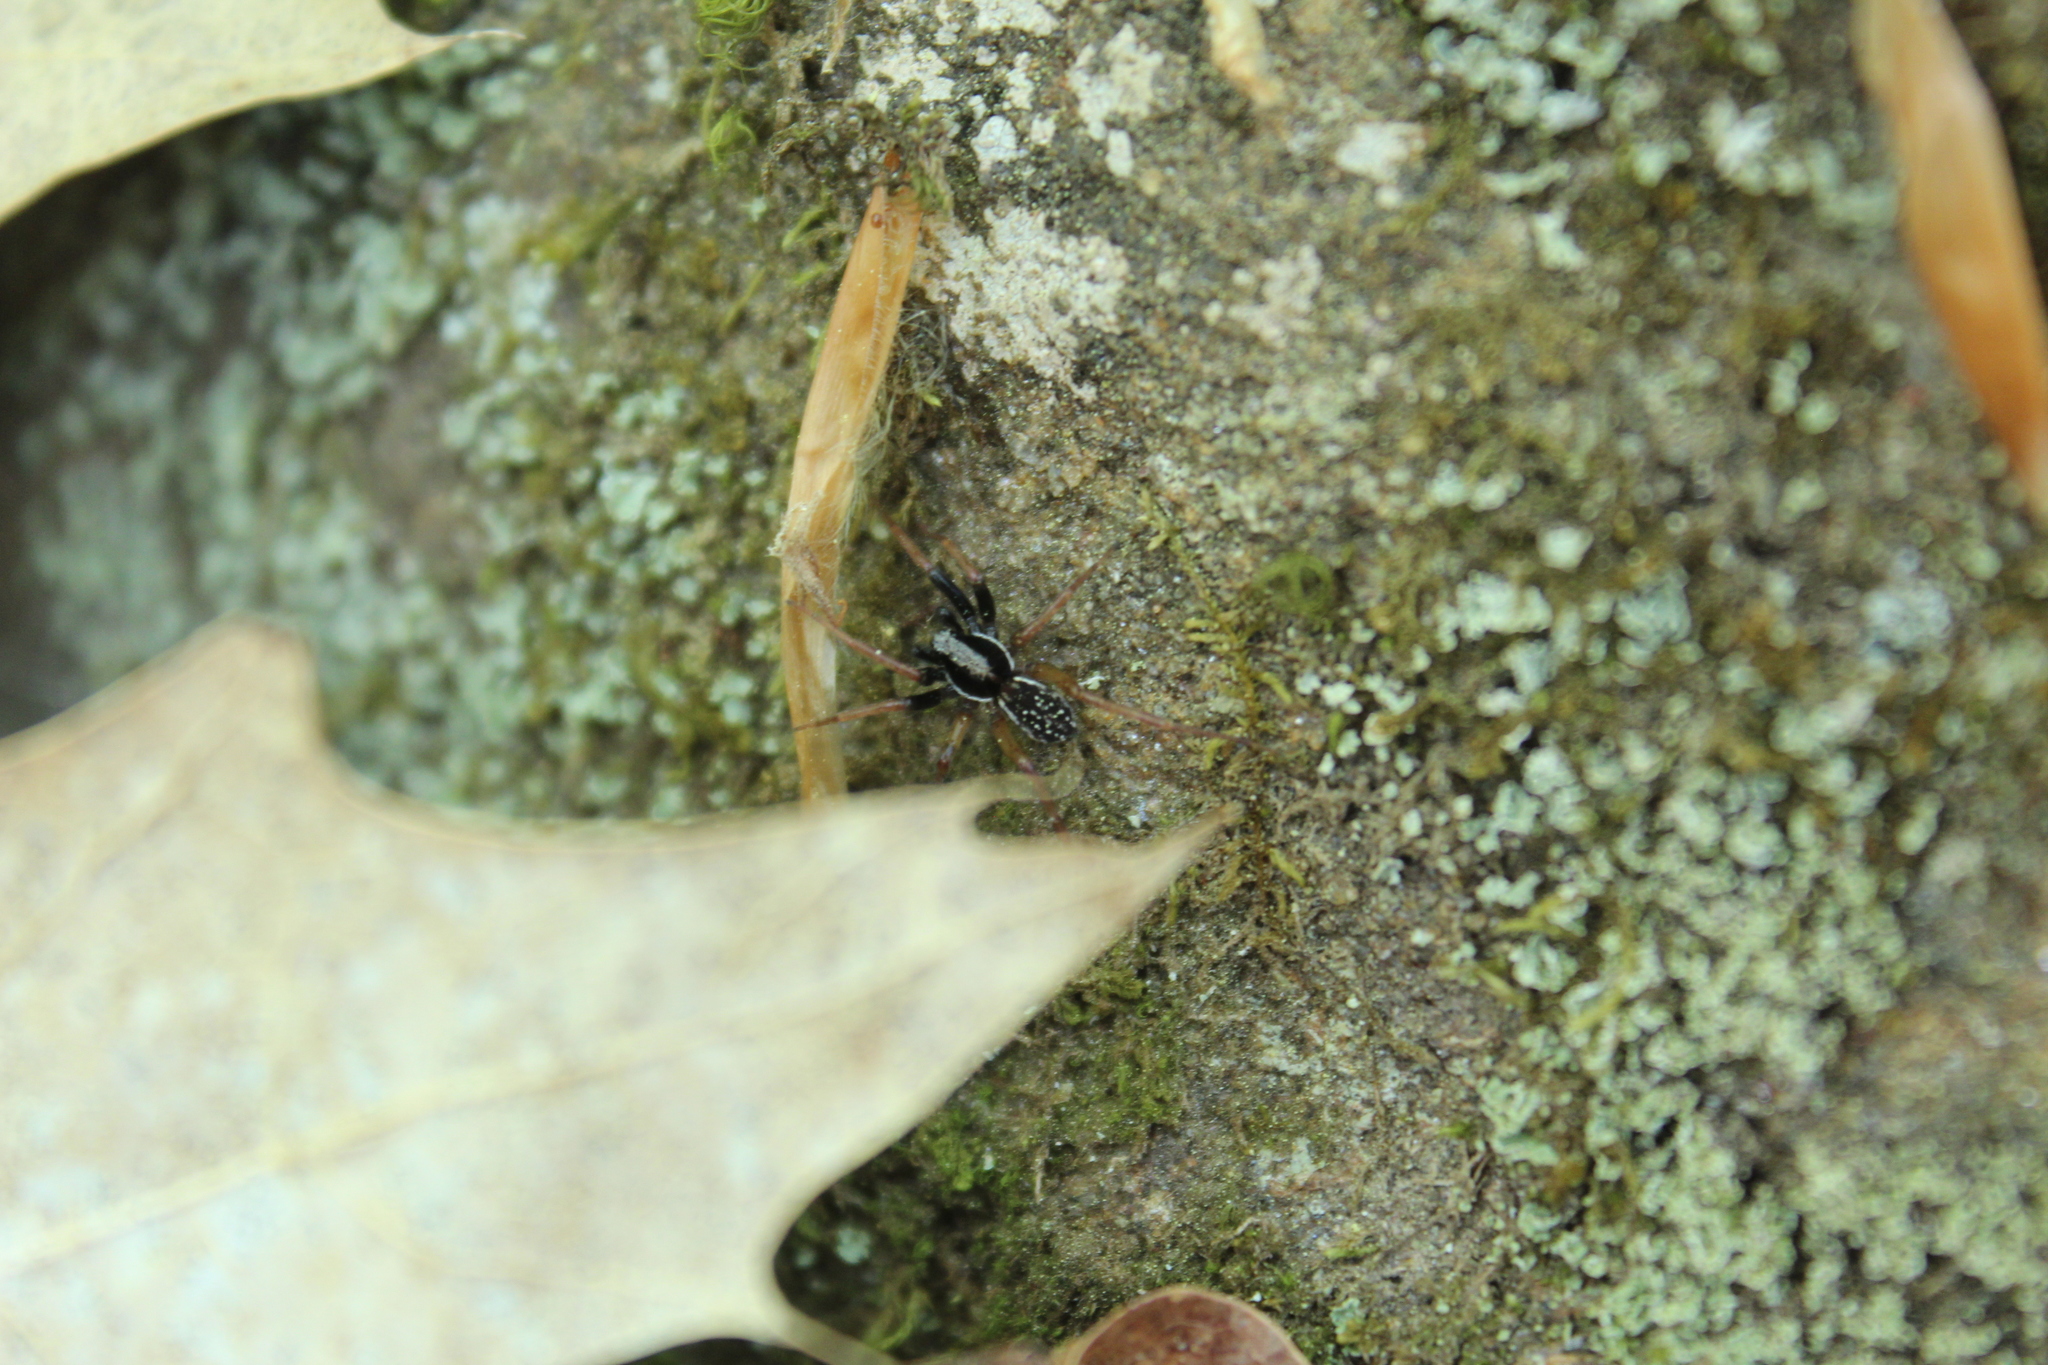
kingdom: Animalia
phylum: Arthropoda
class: Arachnida
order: Araneae
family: Lycosidae
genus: Pirata
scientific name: Pirata montanus
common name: Dark-legged pirate wolf spider
